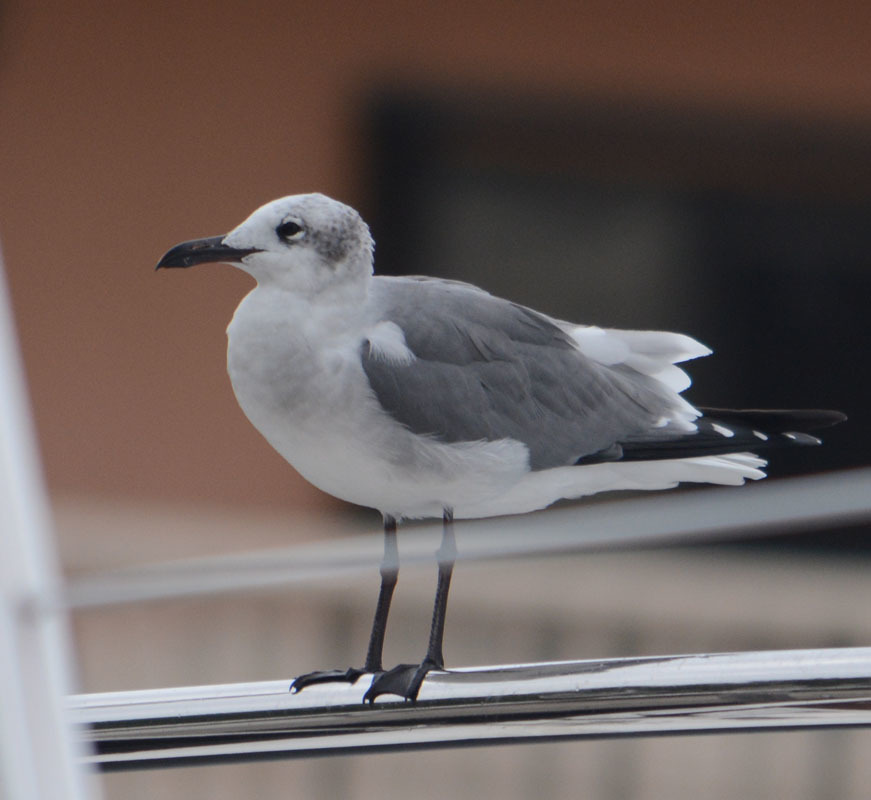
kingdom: Animalia
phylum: Chordata
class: Aves
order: Charadriiformes
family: Laridae
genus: Leucophaeus
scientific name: Leucophaeus atricilla
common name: Laughing gull
